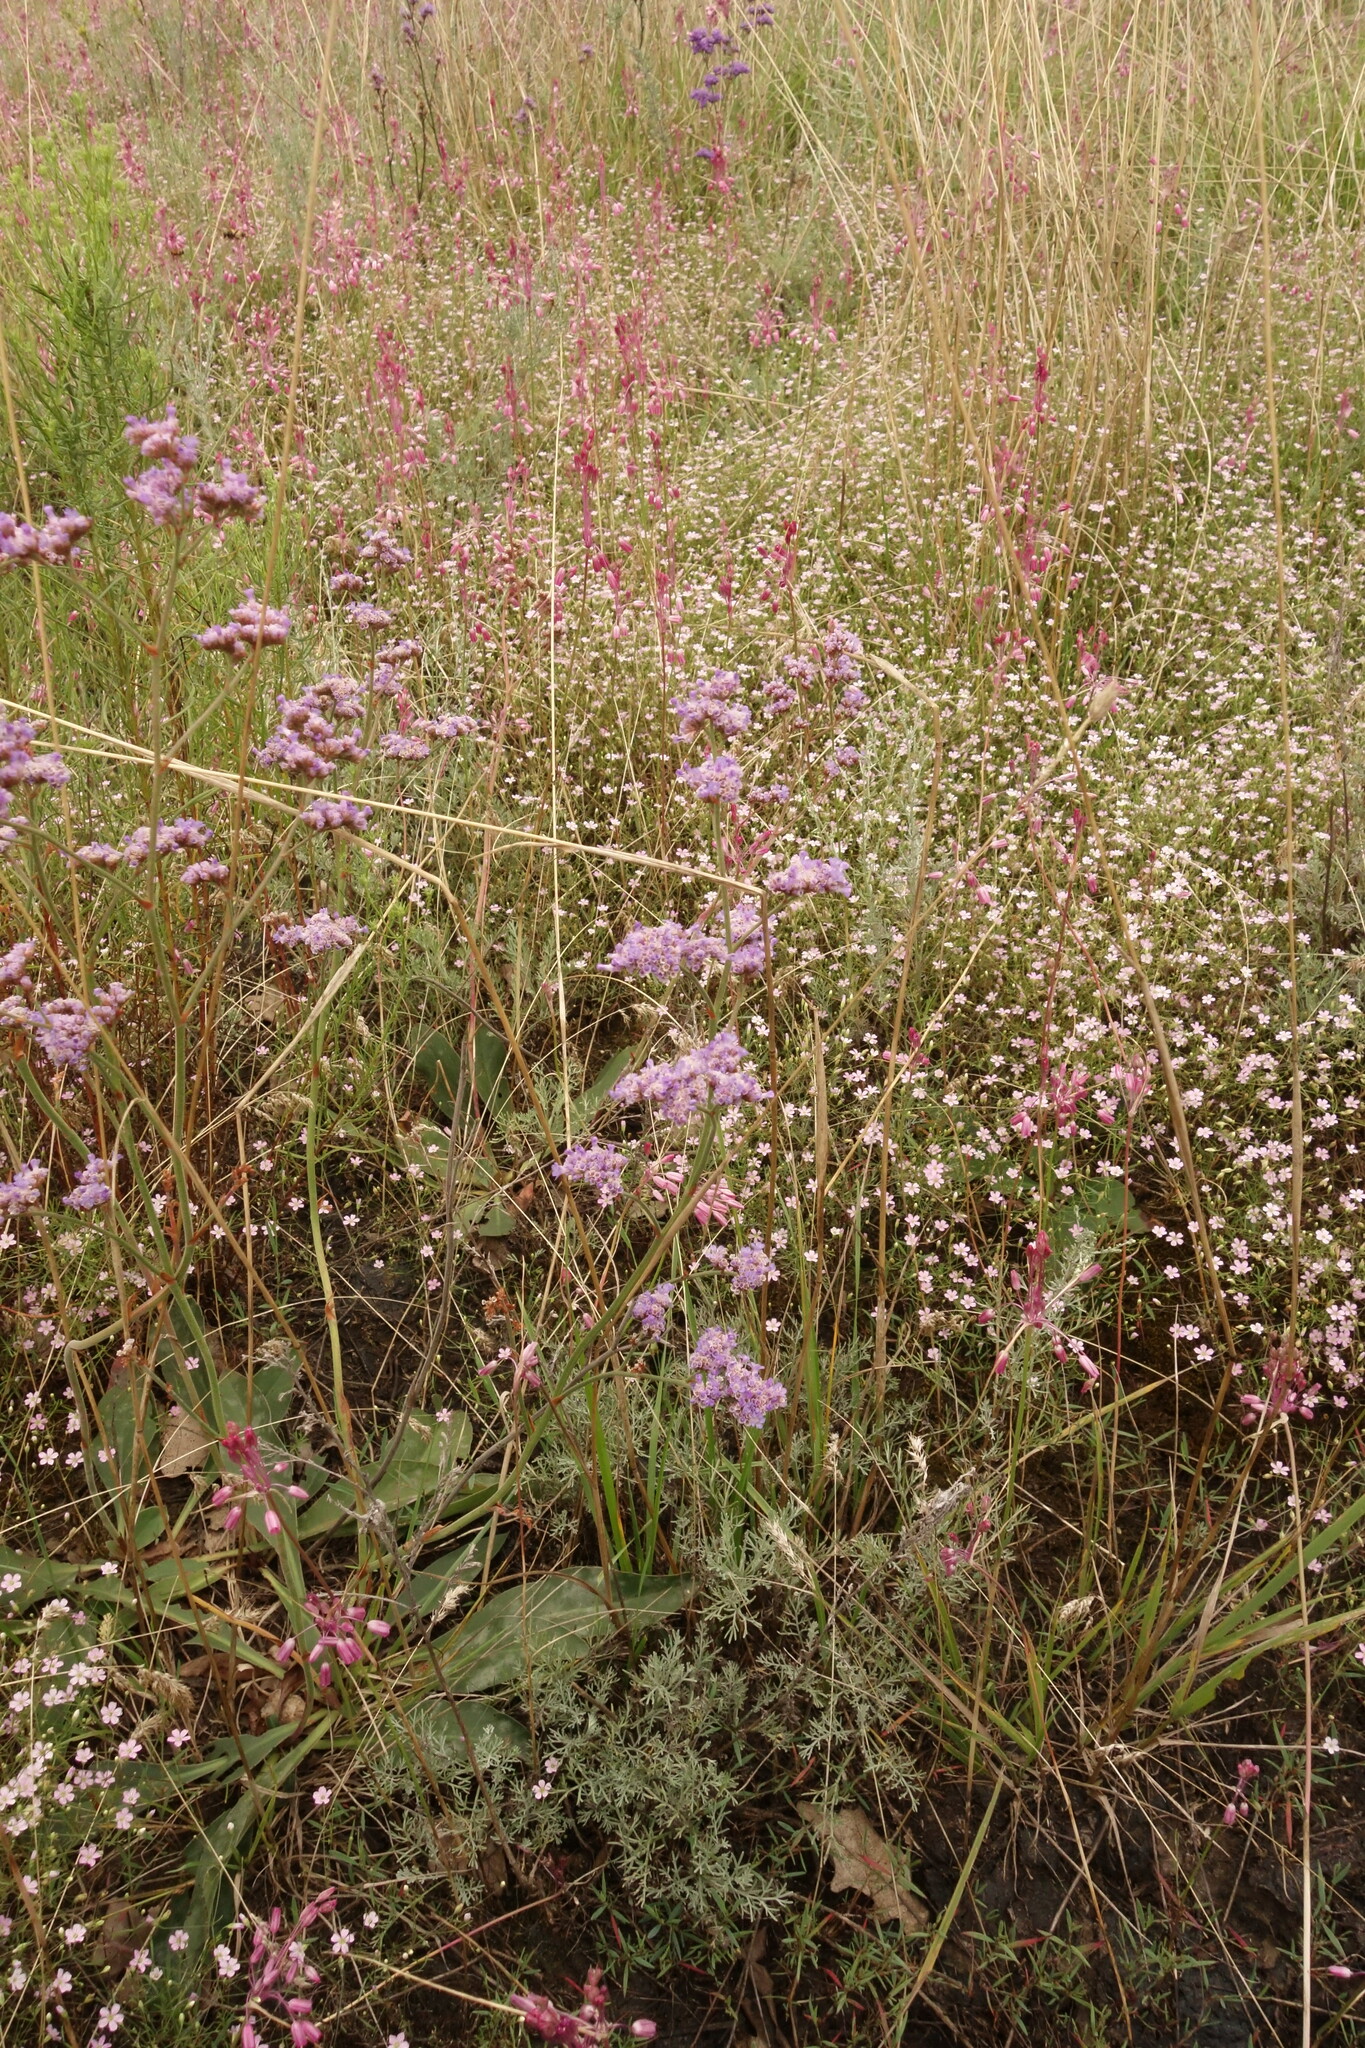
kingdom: Plantae
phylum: Tracheophyta
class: Magnoliopsida
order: Caryophyllales
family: Plumbaginaceae
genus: Limonium
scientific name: Limonium tomentellum
